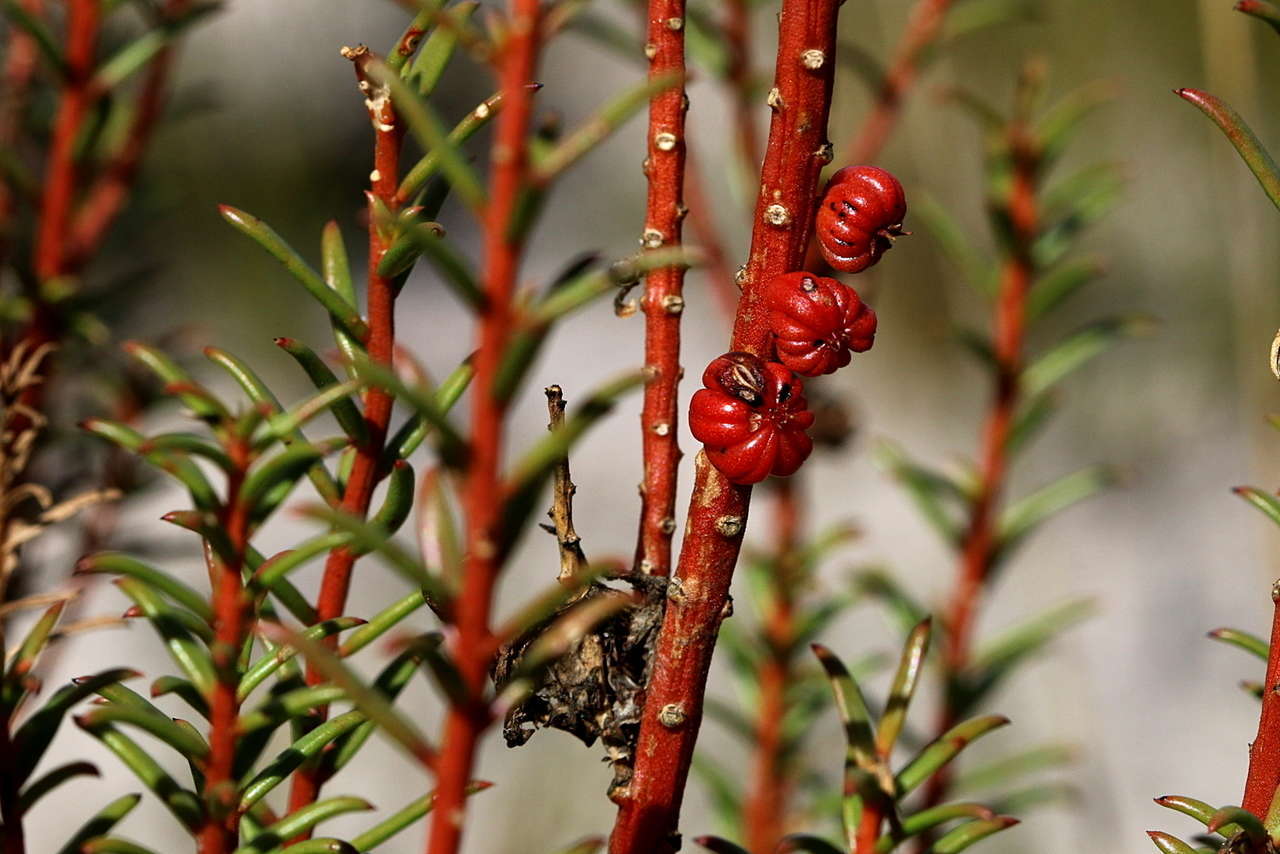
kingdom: Plantae
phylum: Tracheophyta
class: Magnoliopsida
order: Brassicales
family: Gyrostemonaceae
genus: Gyrostemon
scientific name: Gyrostemon australasicus
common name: Wheelfruit
